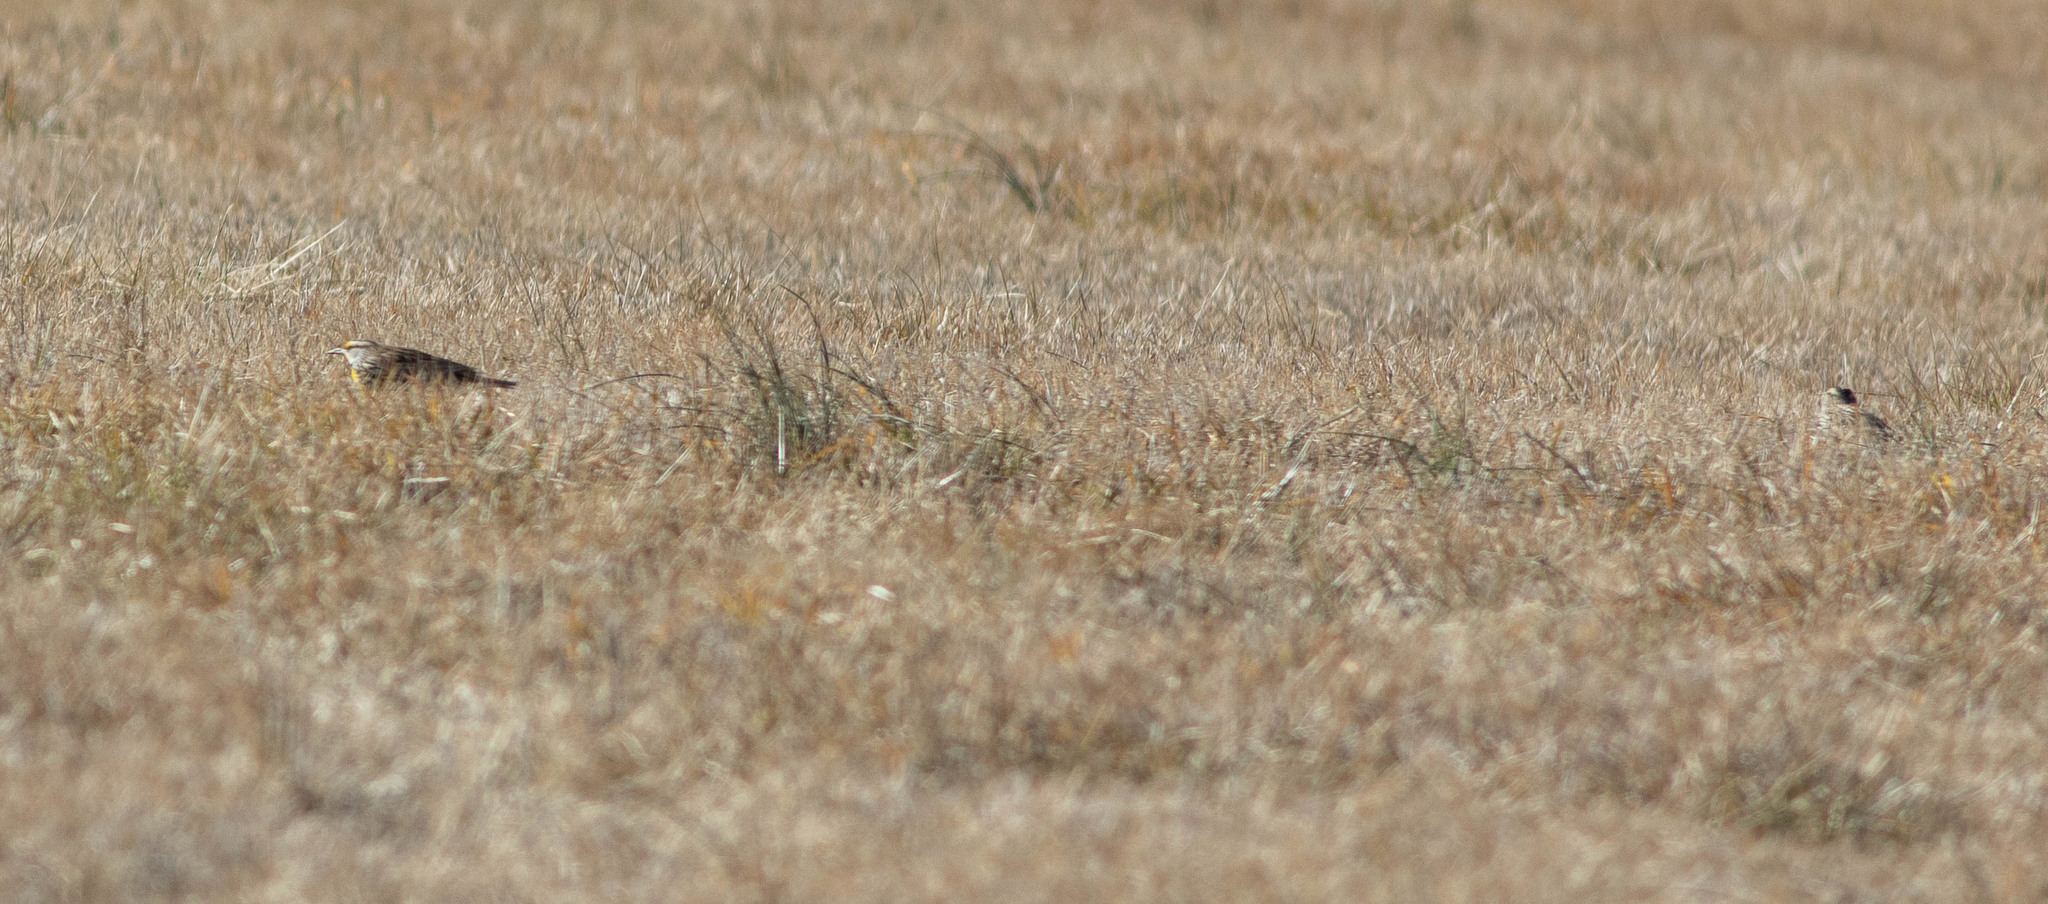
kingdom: Animalia
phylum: Chordata
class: Aves
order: Passeriformes
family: Icteridae
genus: Sturnella
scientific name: Sturnella magna
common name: Eastern meadowlark
